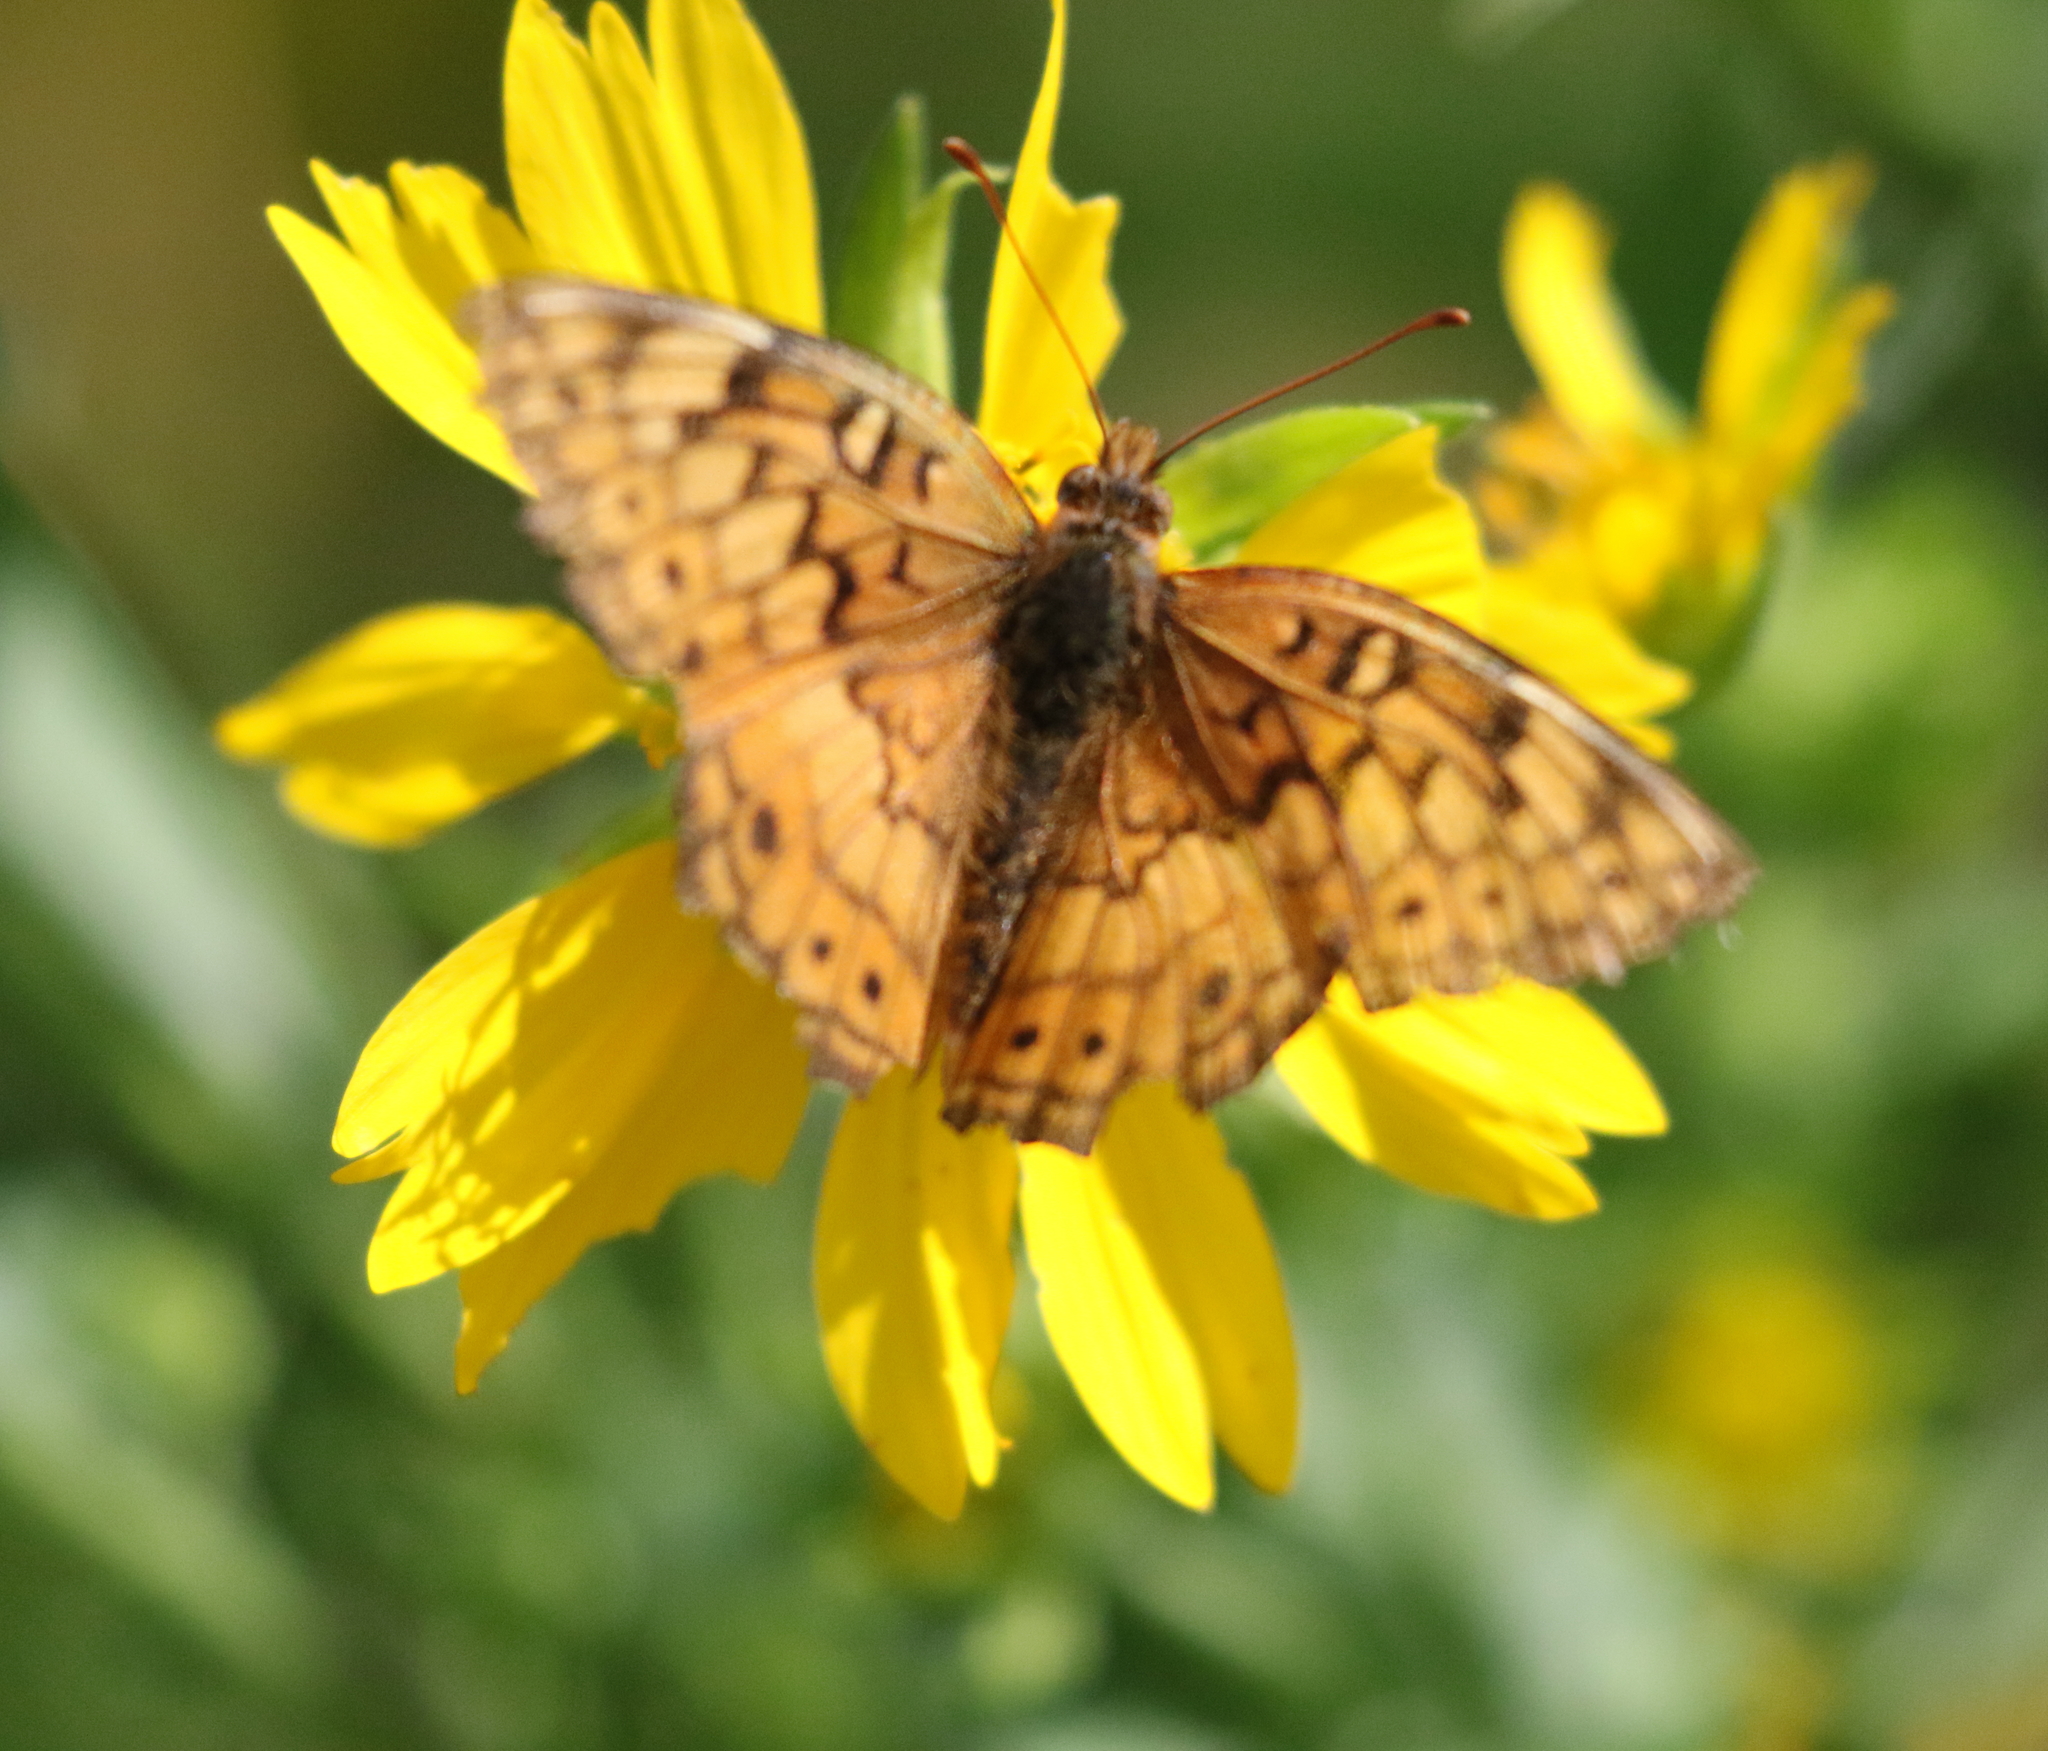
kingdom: Animalia
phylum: Arthropoda
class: Insecta
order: Lepidoptera
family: Nymphalidae
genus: Euptoieta
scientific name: Euptoieta claudia
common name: Variegated fritillary
